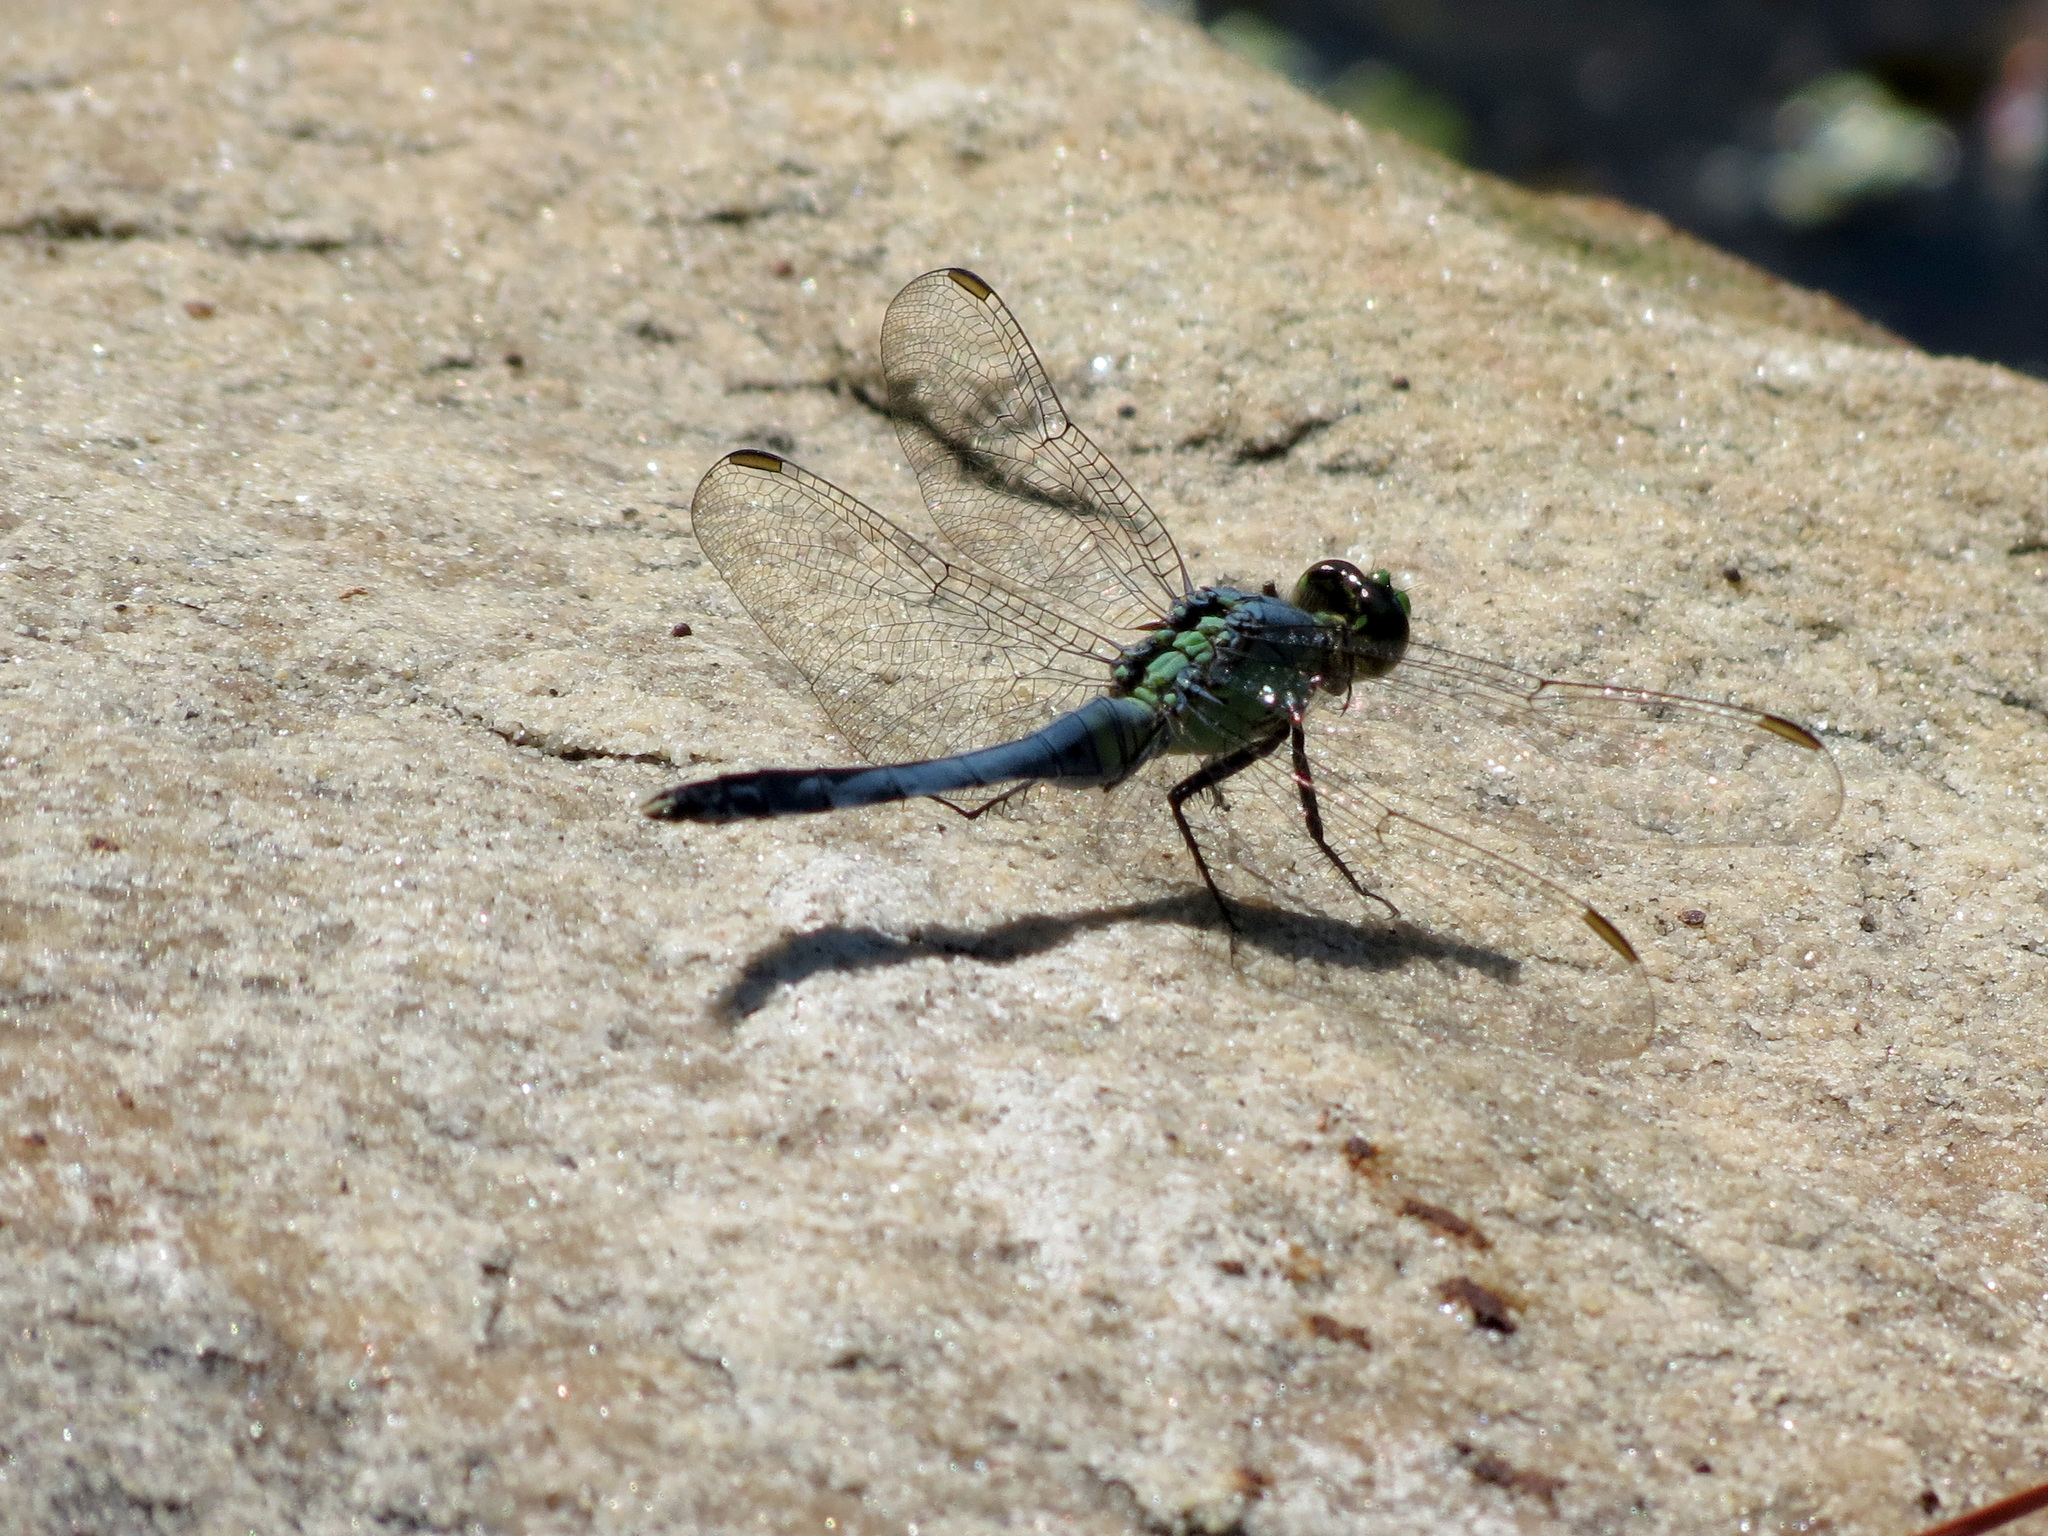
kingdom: Animalia
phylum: Arthropoda
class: Insecta
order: Odonata
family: Libellulidae
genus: Erythemis
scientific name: Erythemis simplicicollis
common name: Eastern pondhawk
